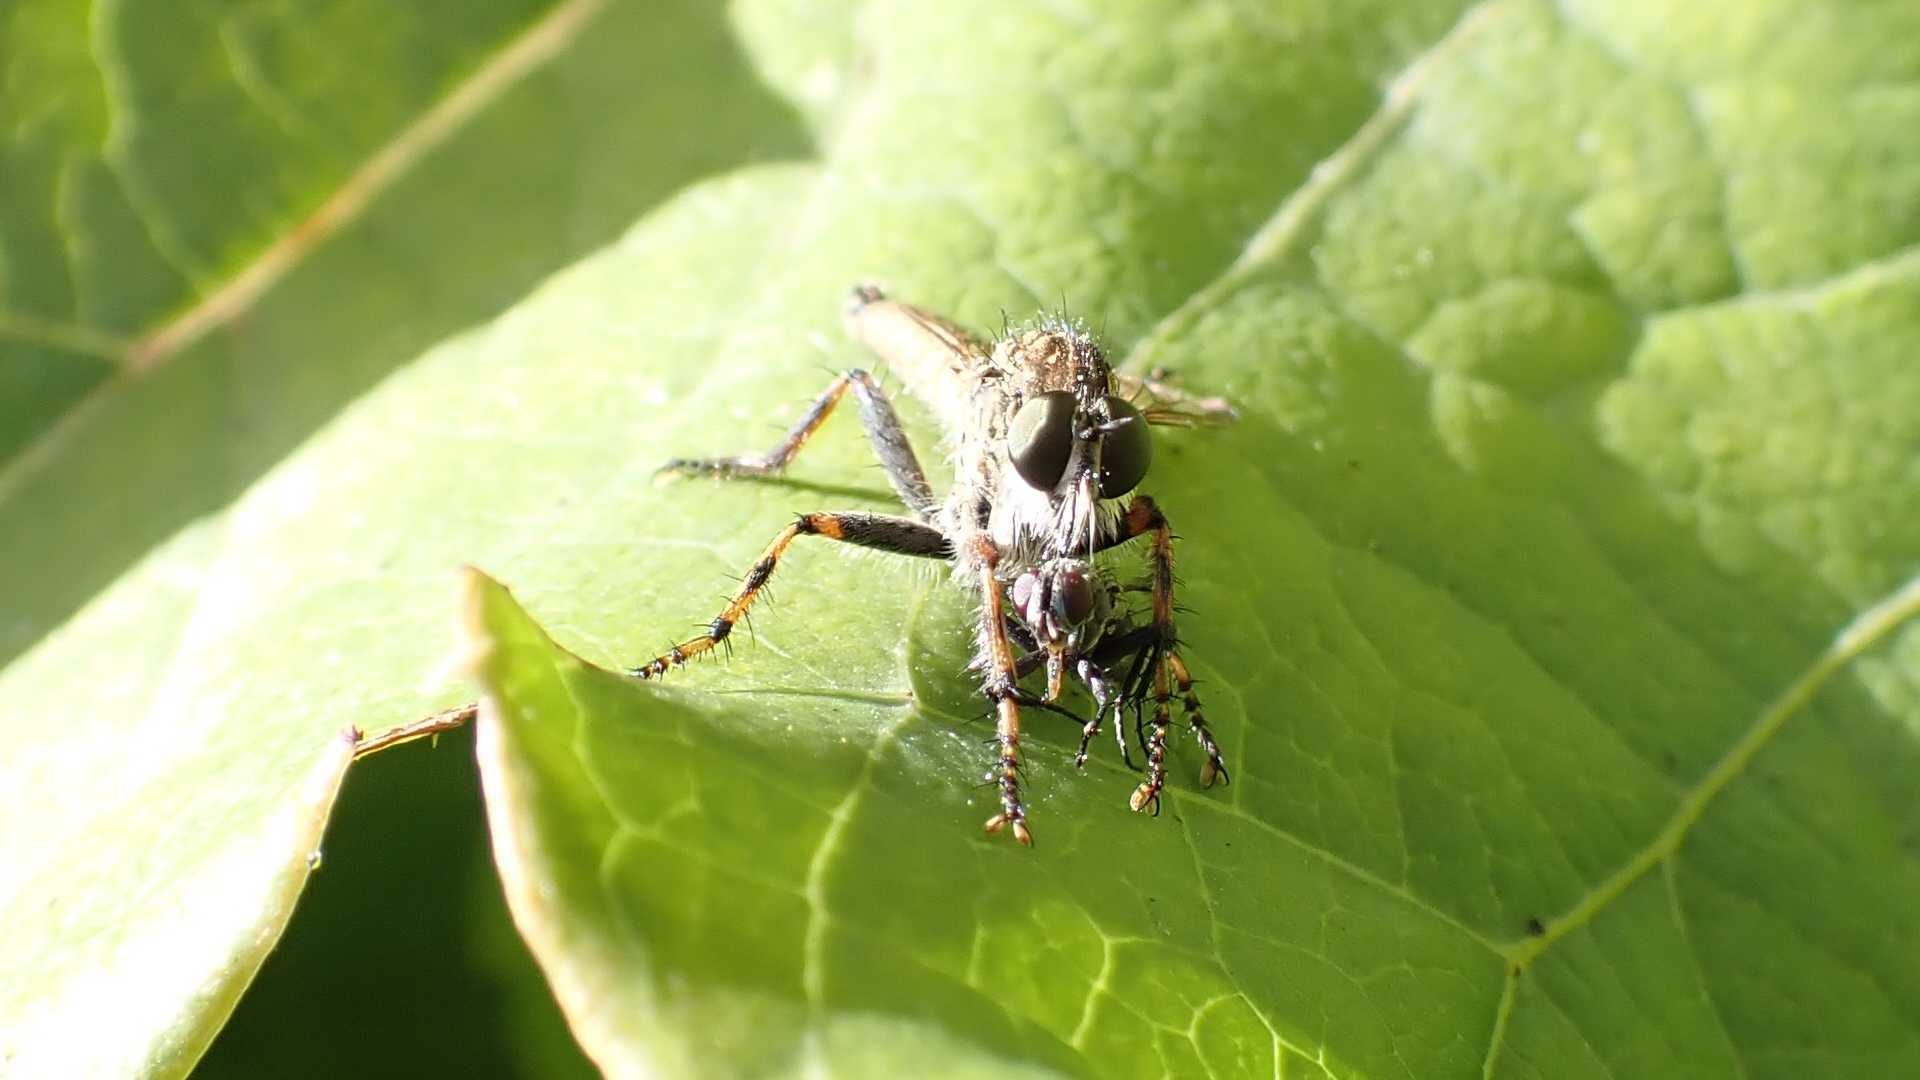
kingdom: Animalia
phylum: Arthropoda
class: Insecta
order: Diptera
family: Asilidae
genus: Epitriptus
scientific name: Epitriptus cingulatus
